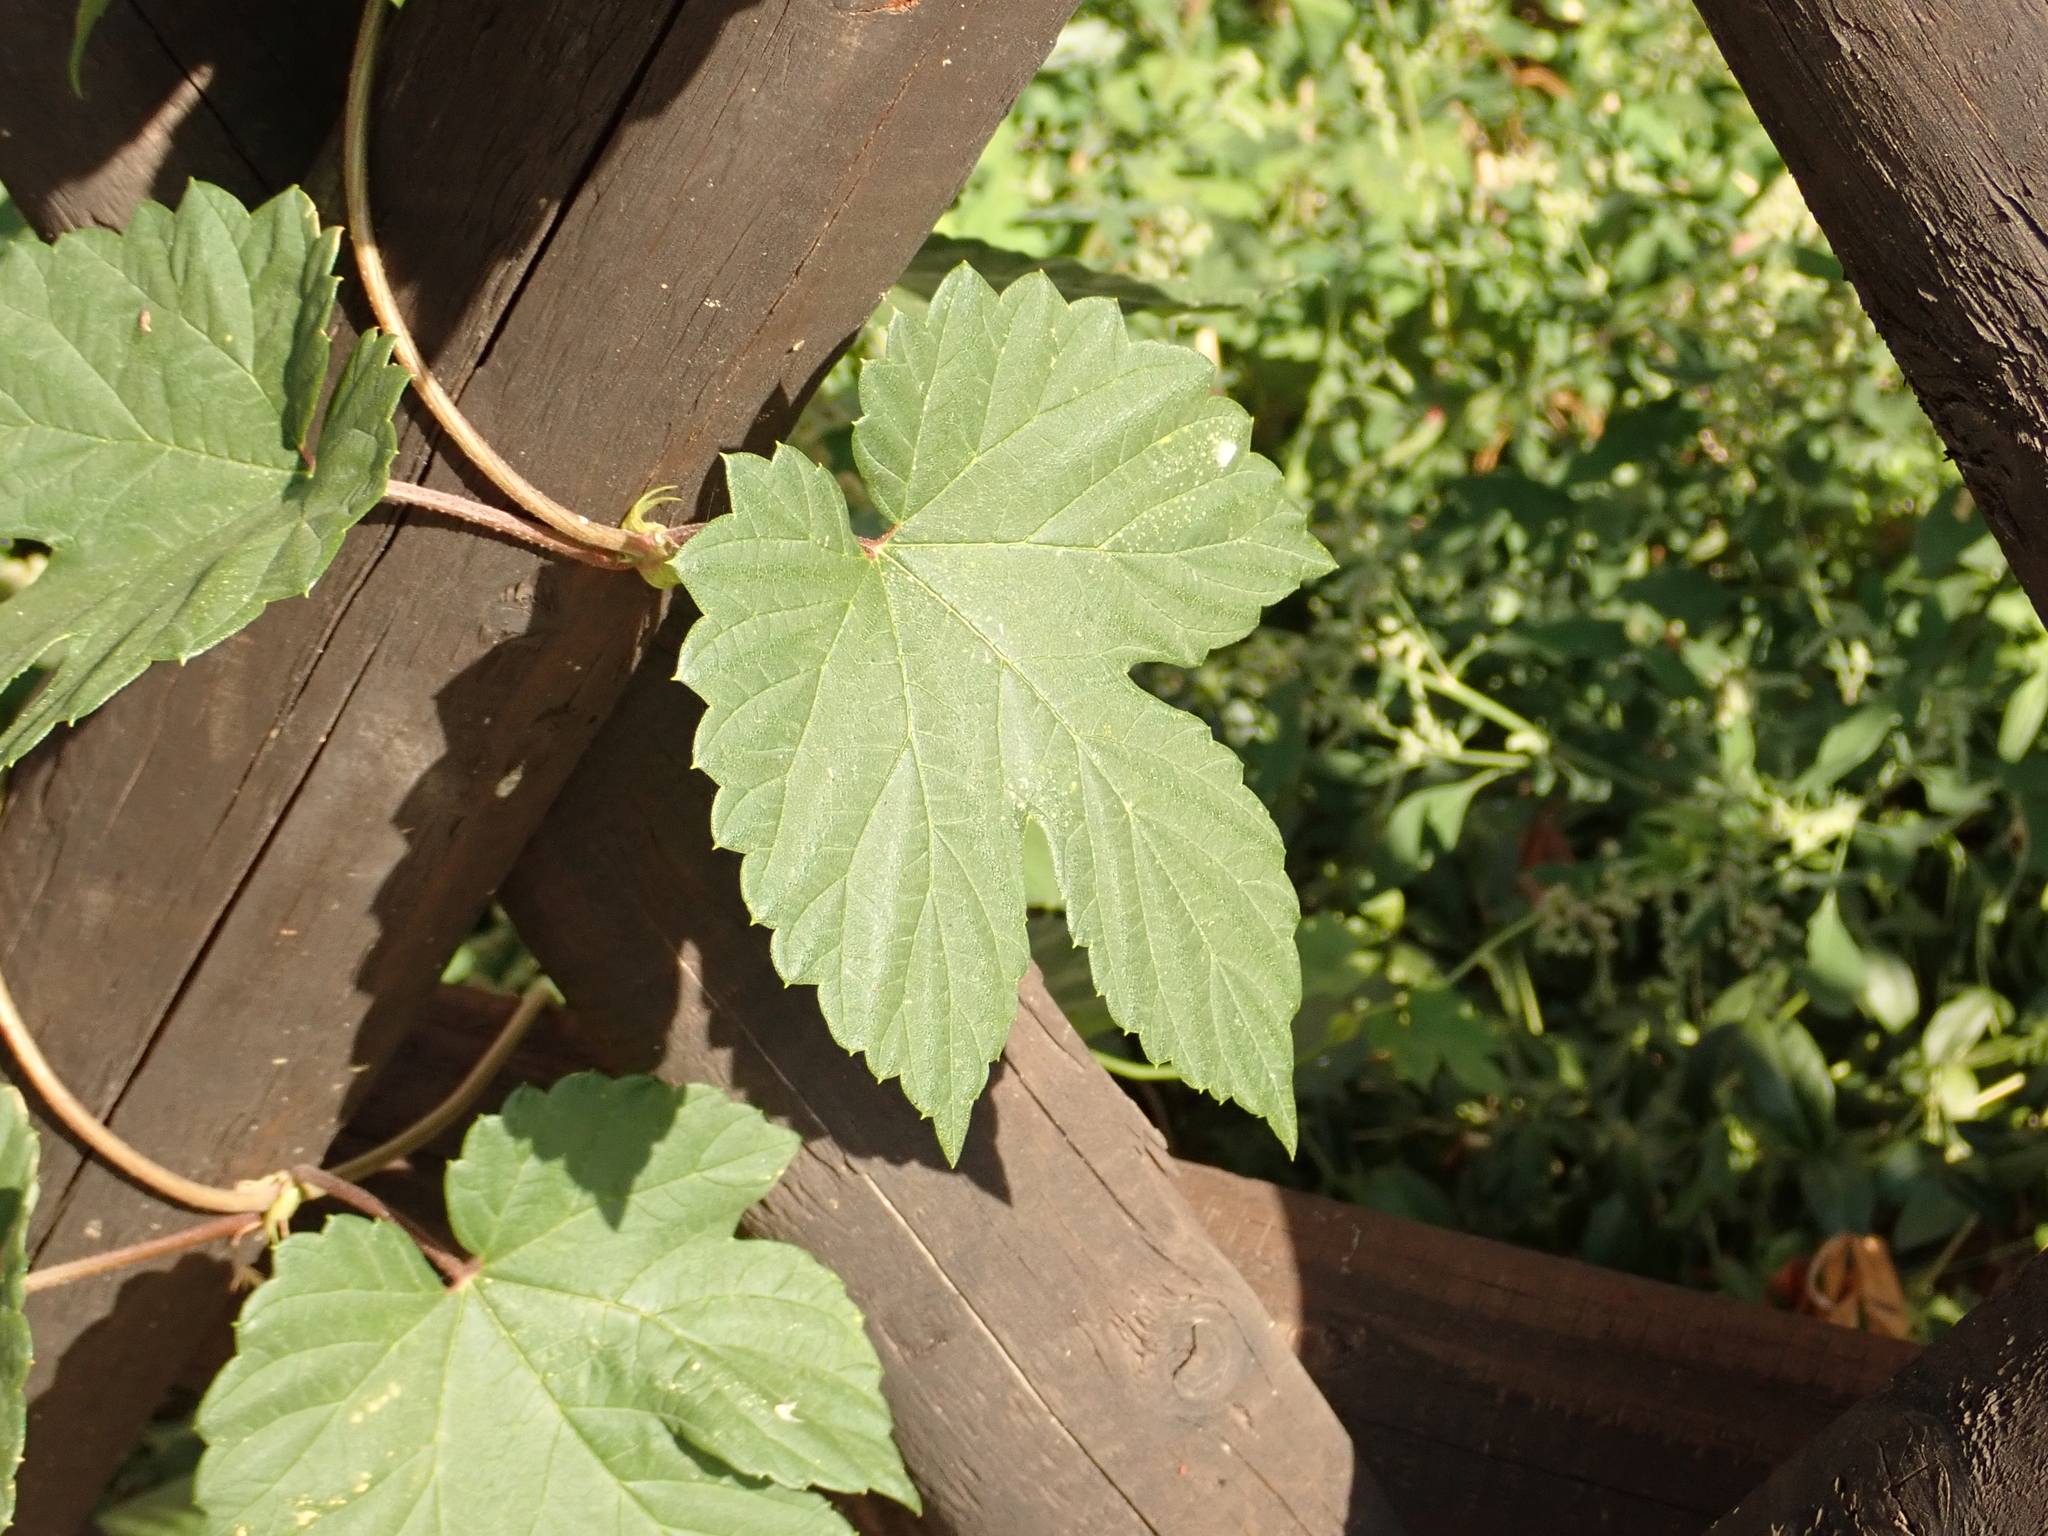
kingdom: Plantae
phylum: Tracheophyta
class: Magnoliopsida
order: Rosales
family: Cannabaceae
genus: Humulus
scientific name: Humulus lupulus
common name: Hop
